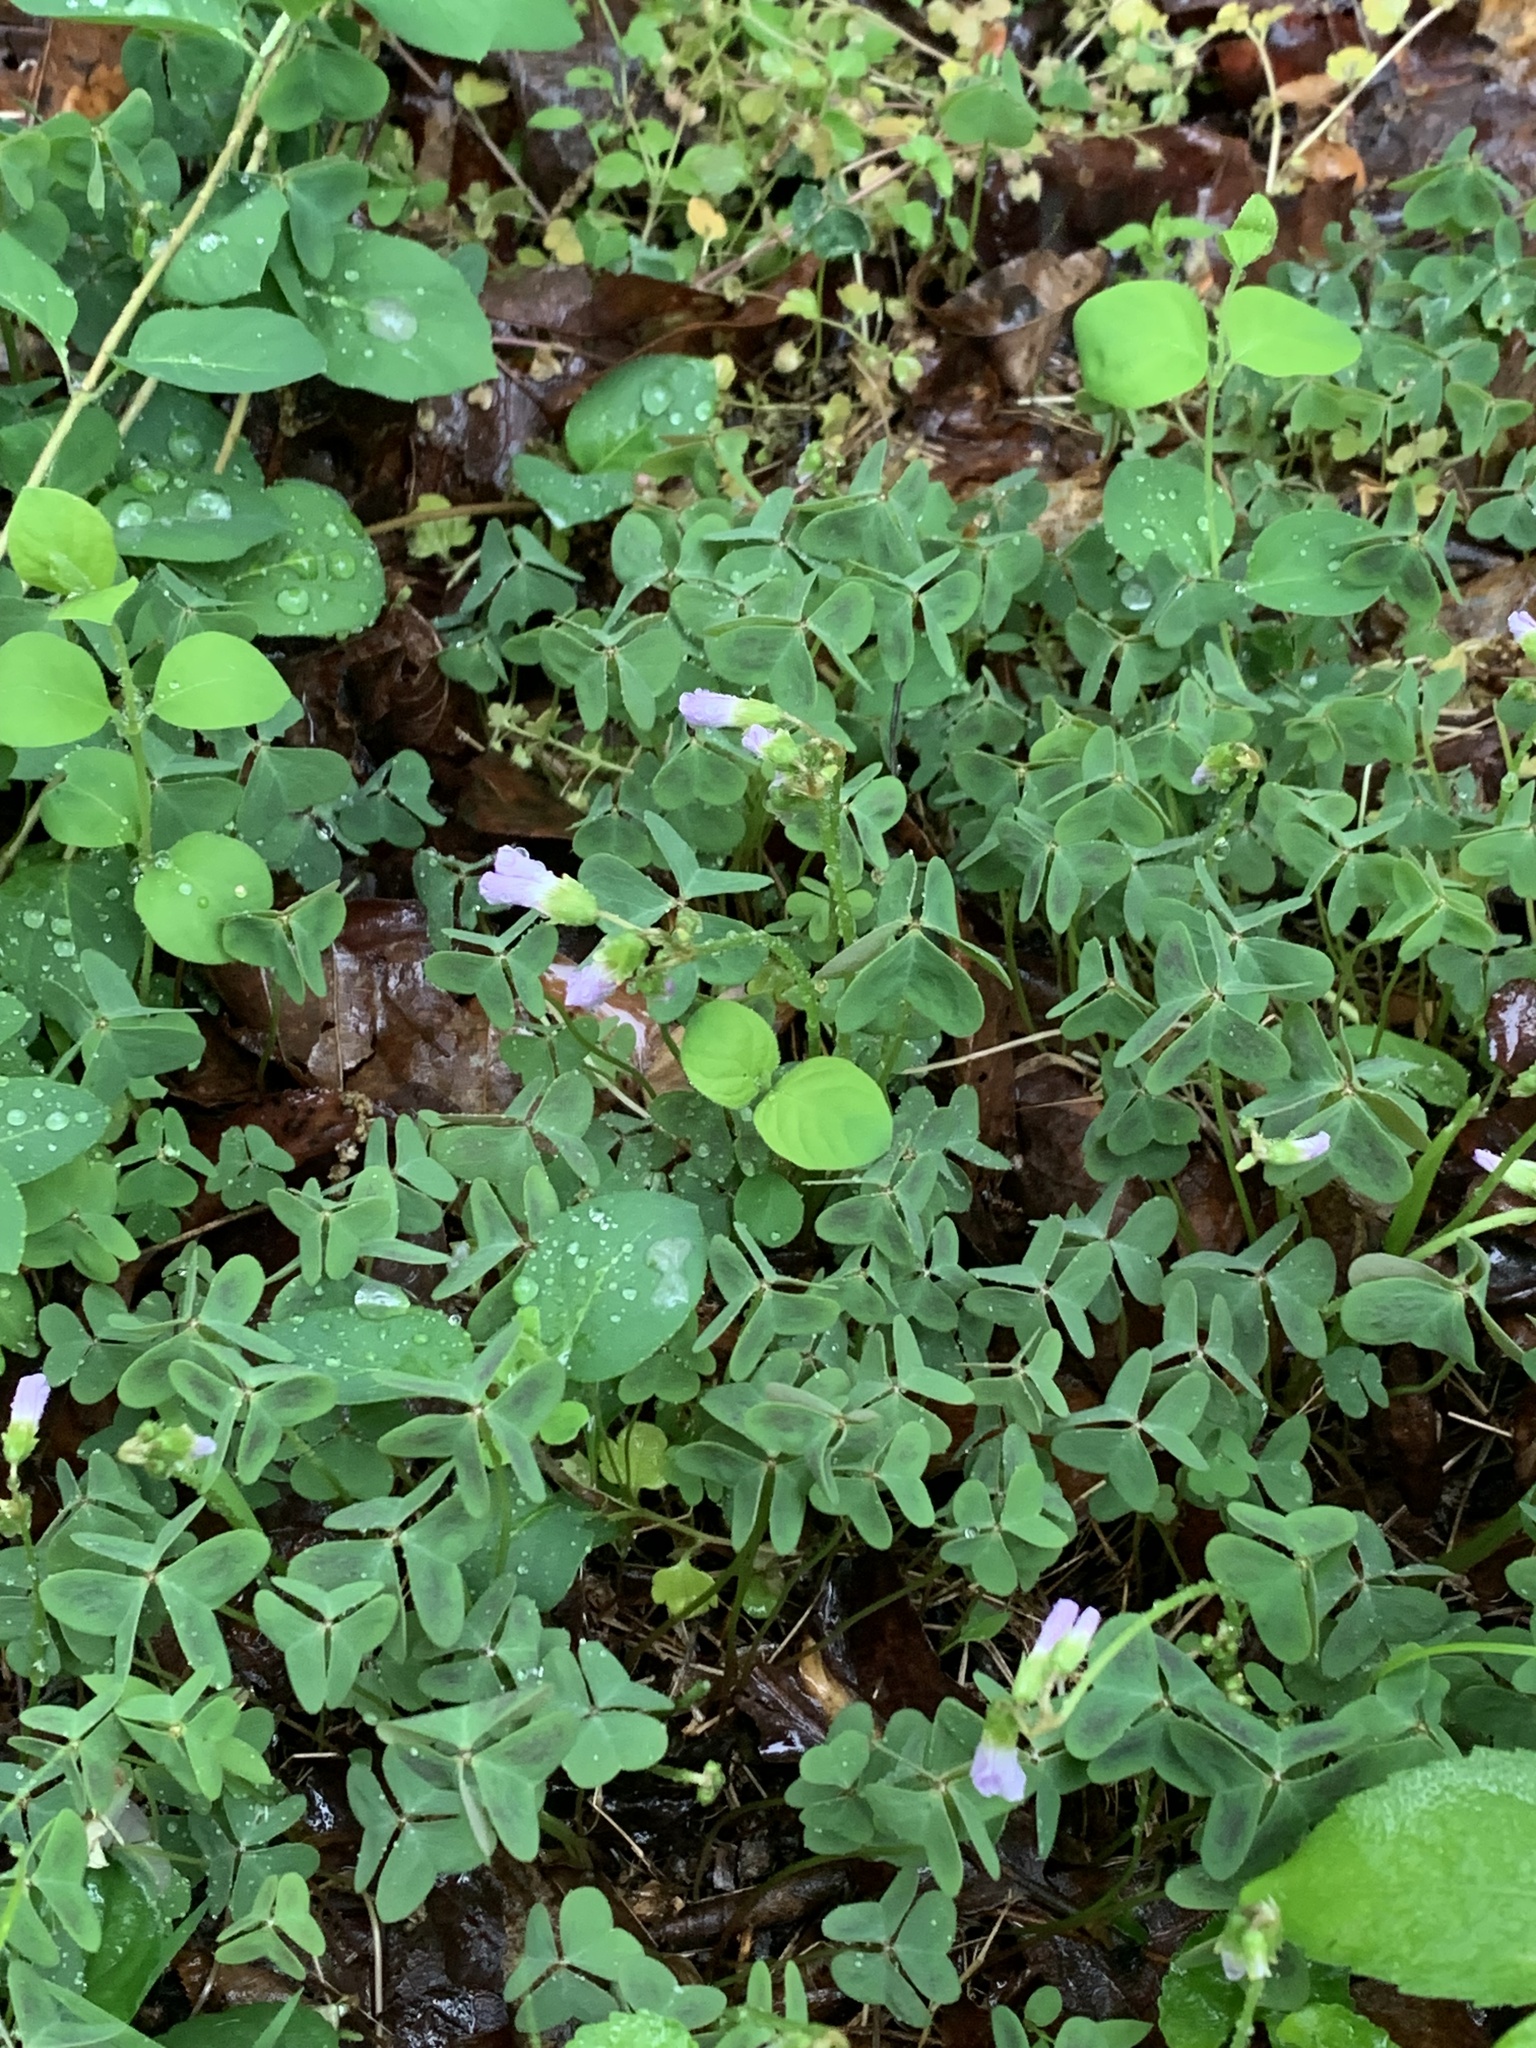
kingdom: Plantae
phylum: Tracheophyta
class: Magnoliopsida
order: Oxalidales
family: Oxalidaceae
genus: Oxalis
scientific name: Oxalis violacea
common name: Violet wood-sorrel
